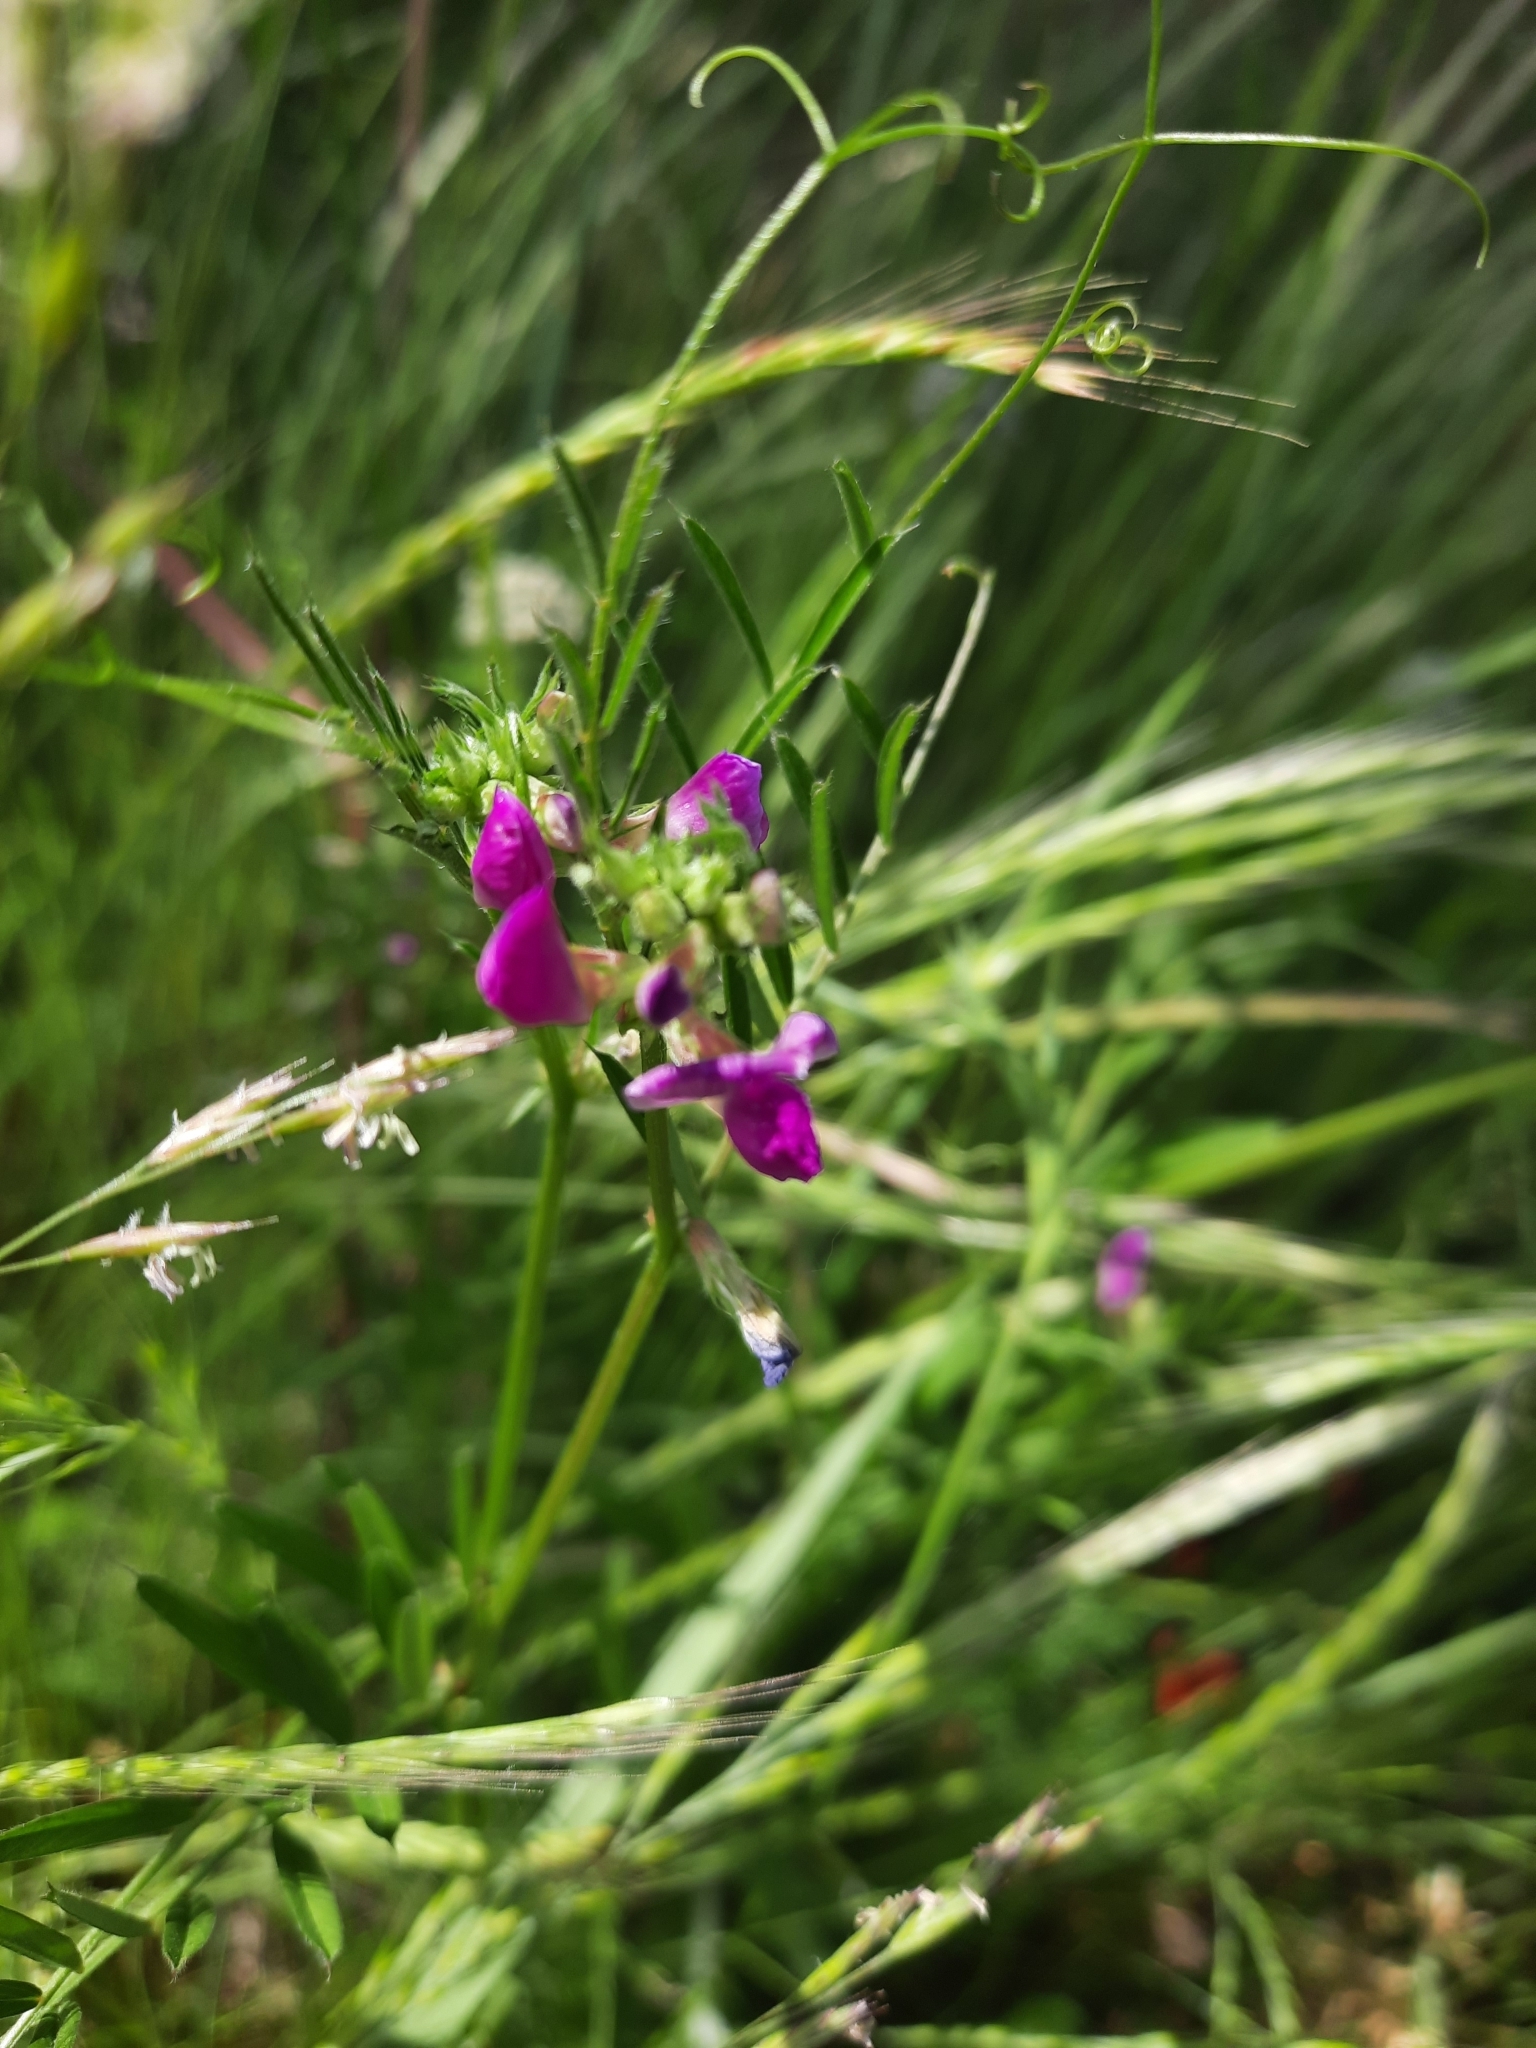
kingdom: Plantae
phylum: Tracheophyta
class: Magnoliopsida
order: Fabales
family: Fabaceae
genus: Vicia
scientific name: Vicia sativa
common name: Garden vetch
